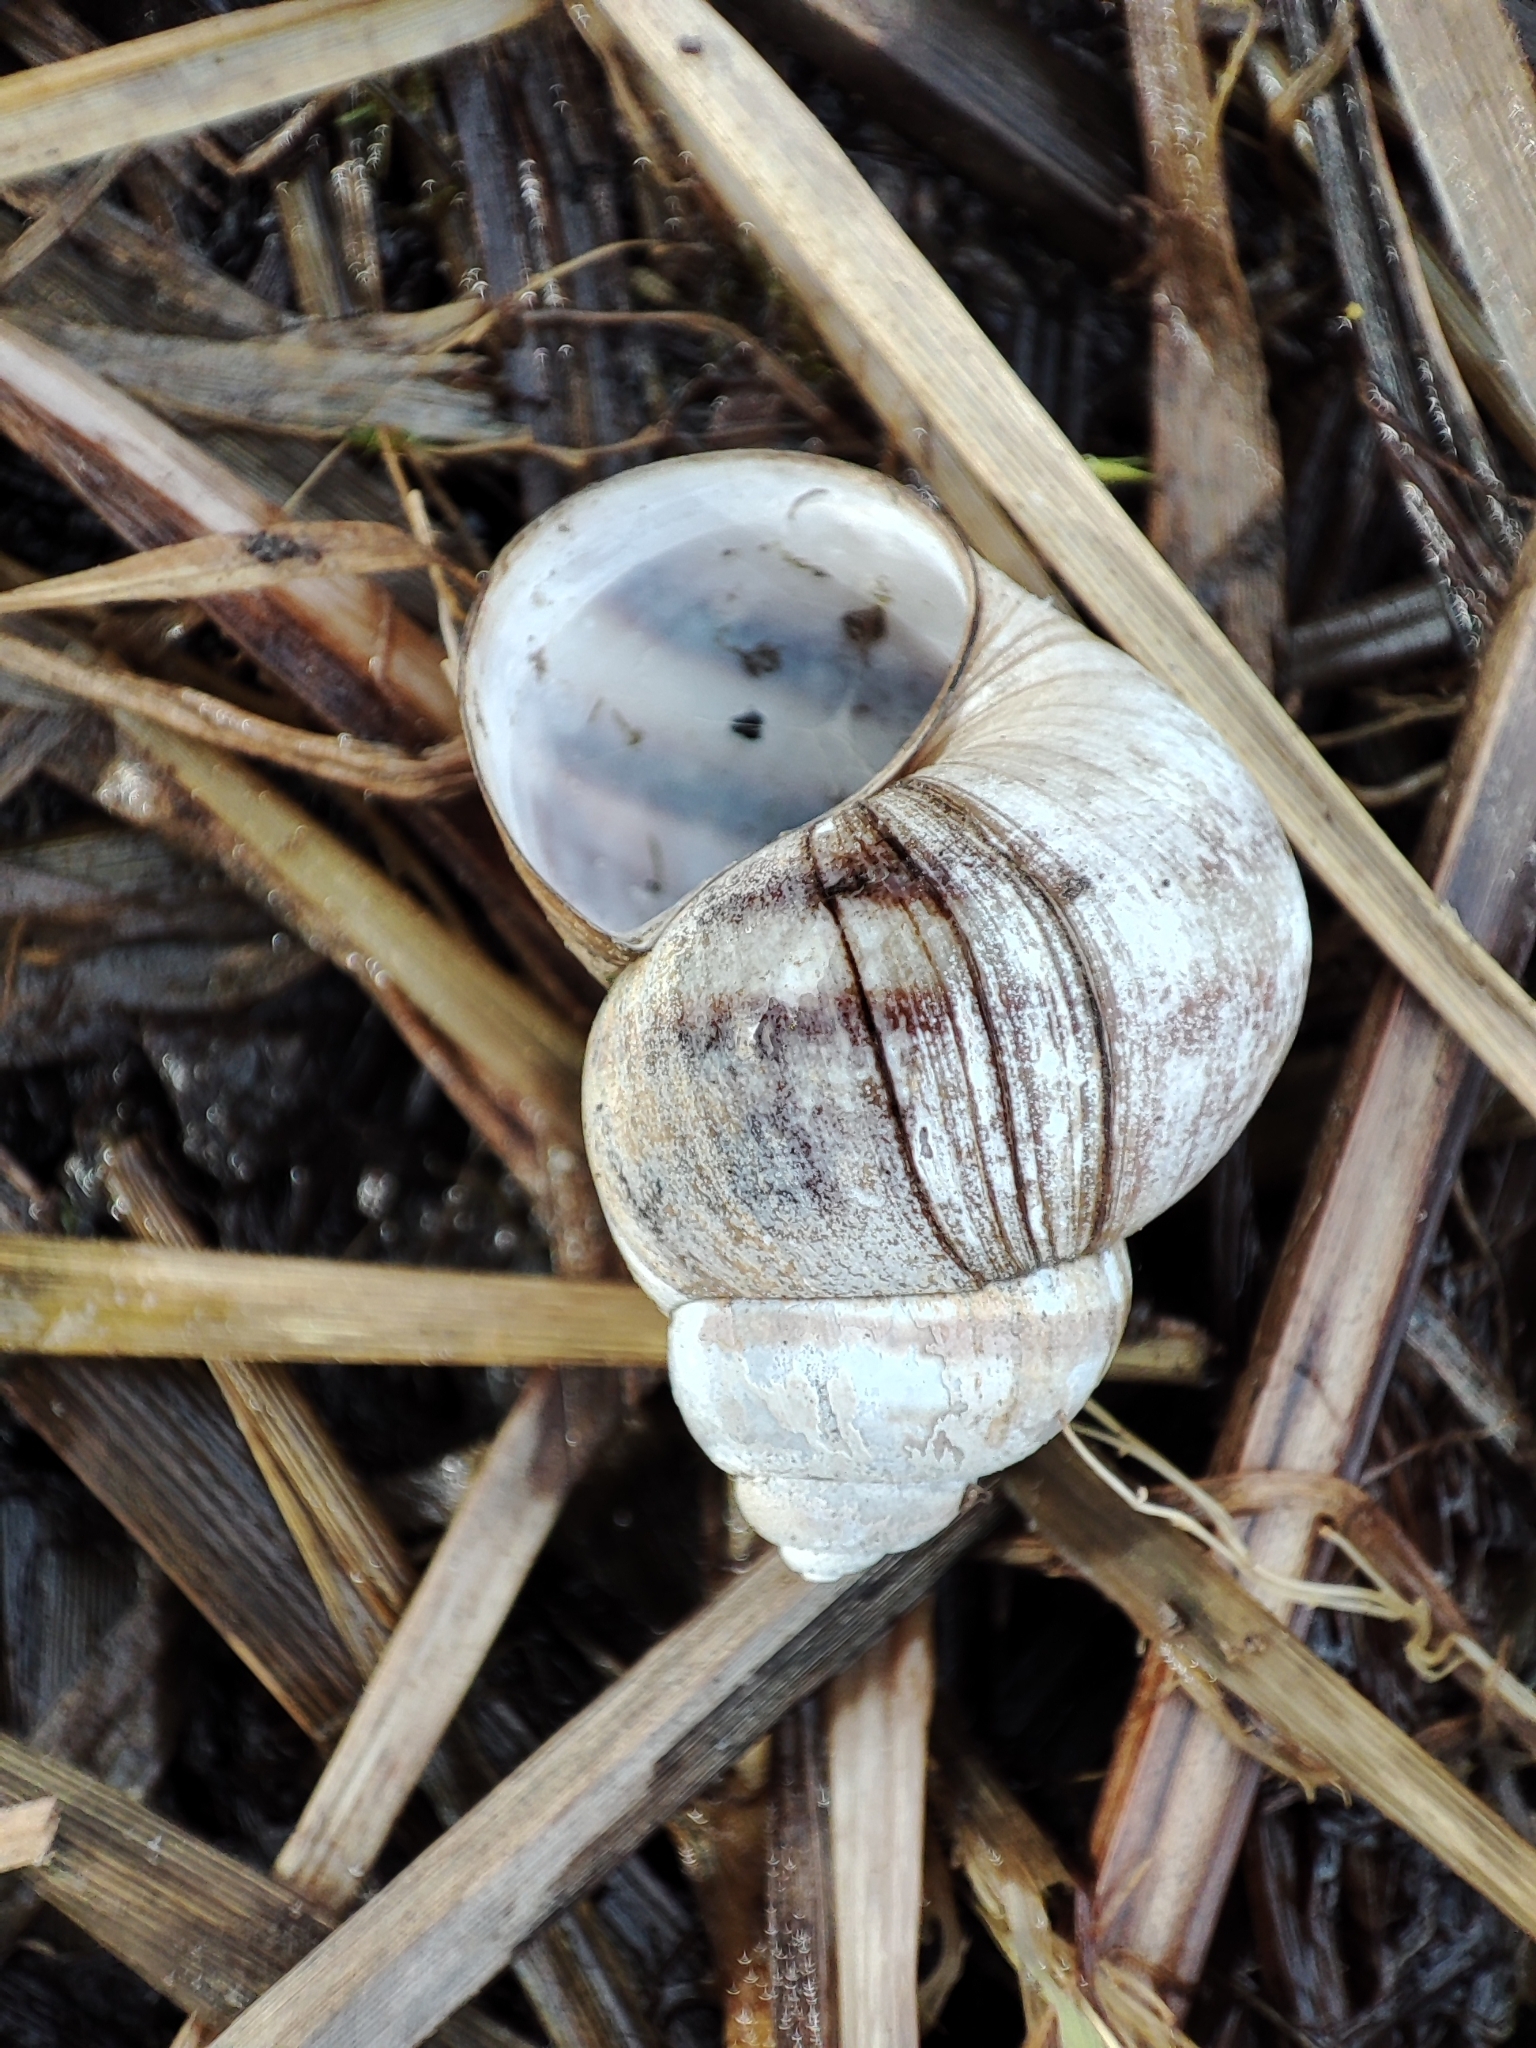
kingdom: Animalia
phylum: Mollusca
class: Gastropoda
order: Architaenioglossa
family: Viviparidae
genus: Viviparus
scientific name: Viviparus viviparus
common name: River snail
